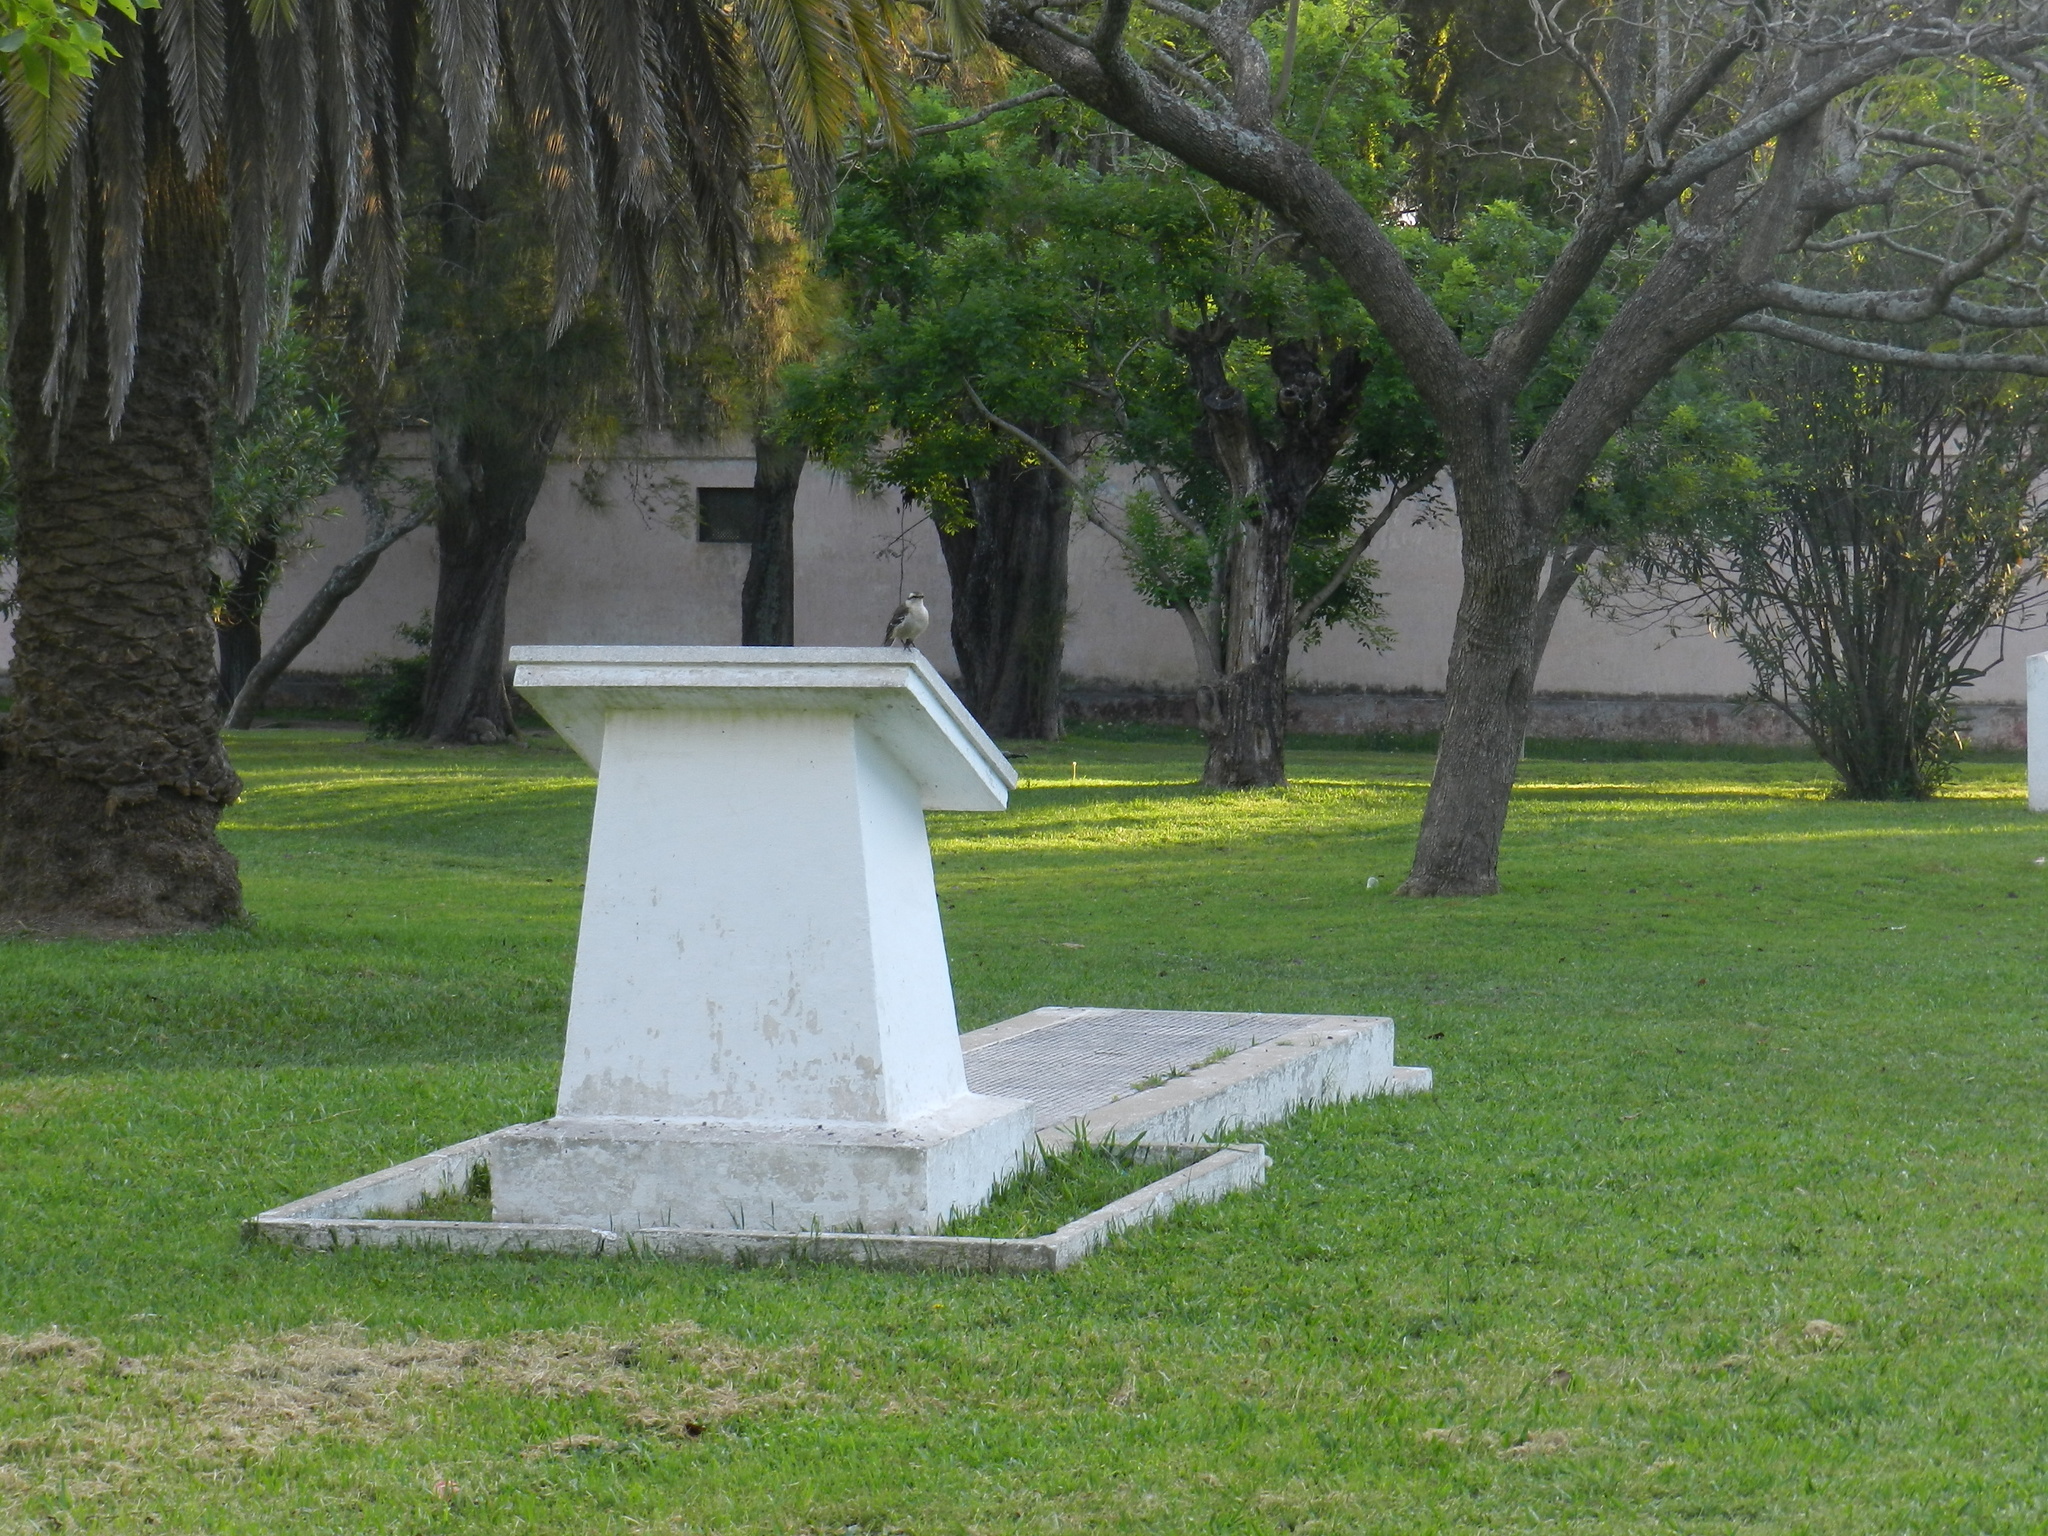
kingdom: Animalia
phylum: Chordata
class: Aves
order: Passeriformes
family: Mimidae
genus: Mimus
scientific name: Mimus saturninus
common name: Chalk-browed mockingbird
